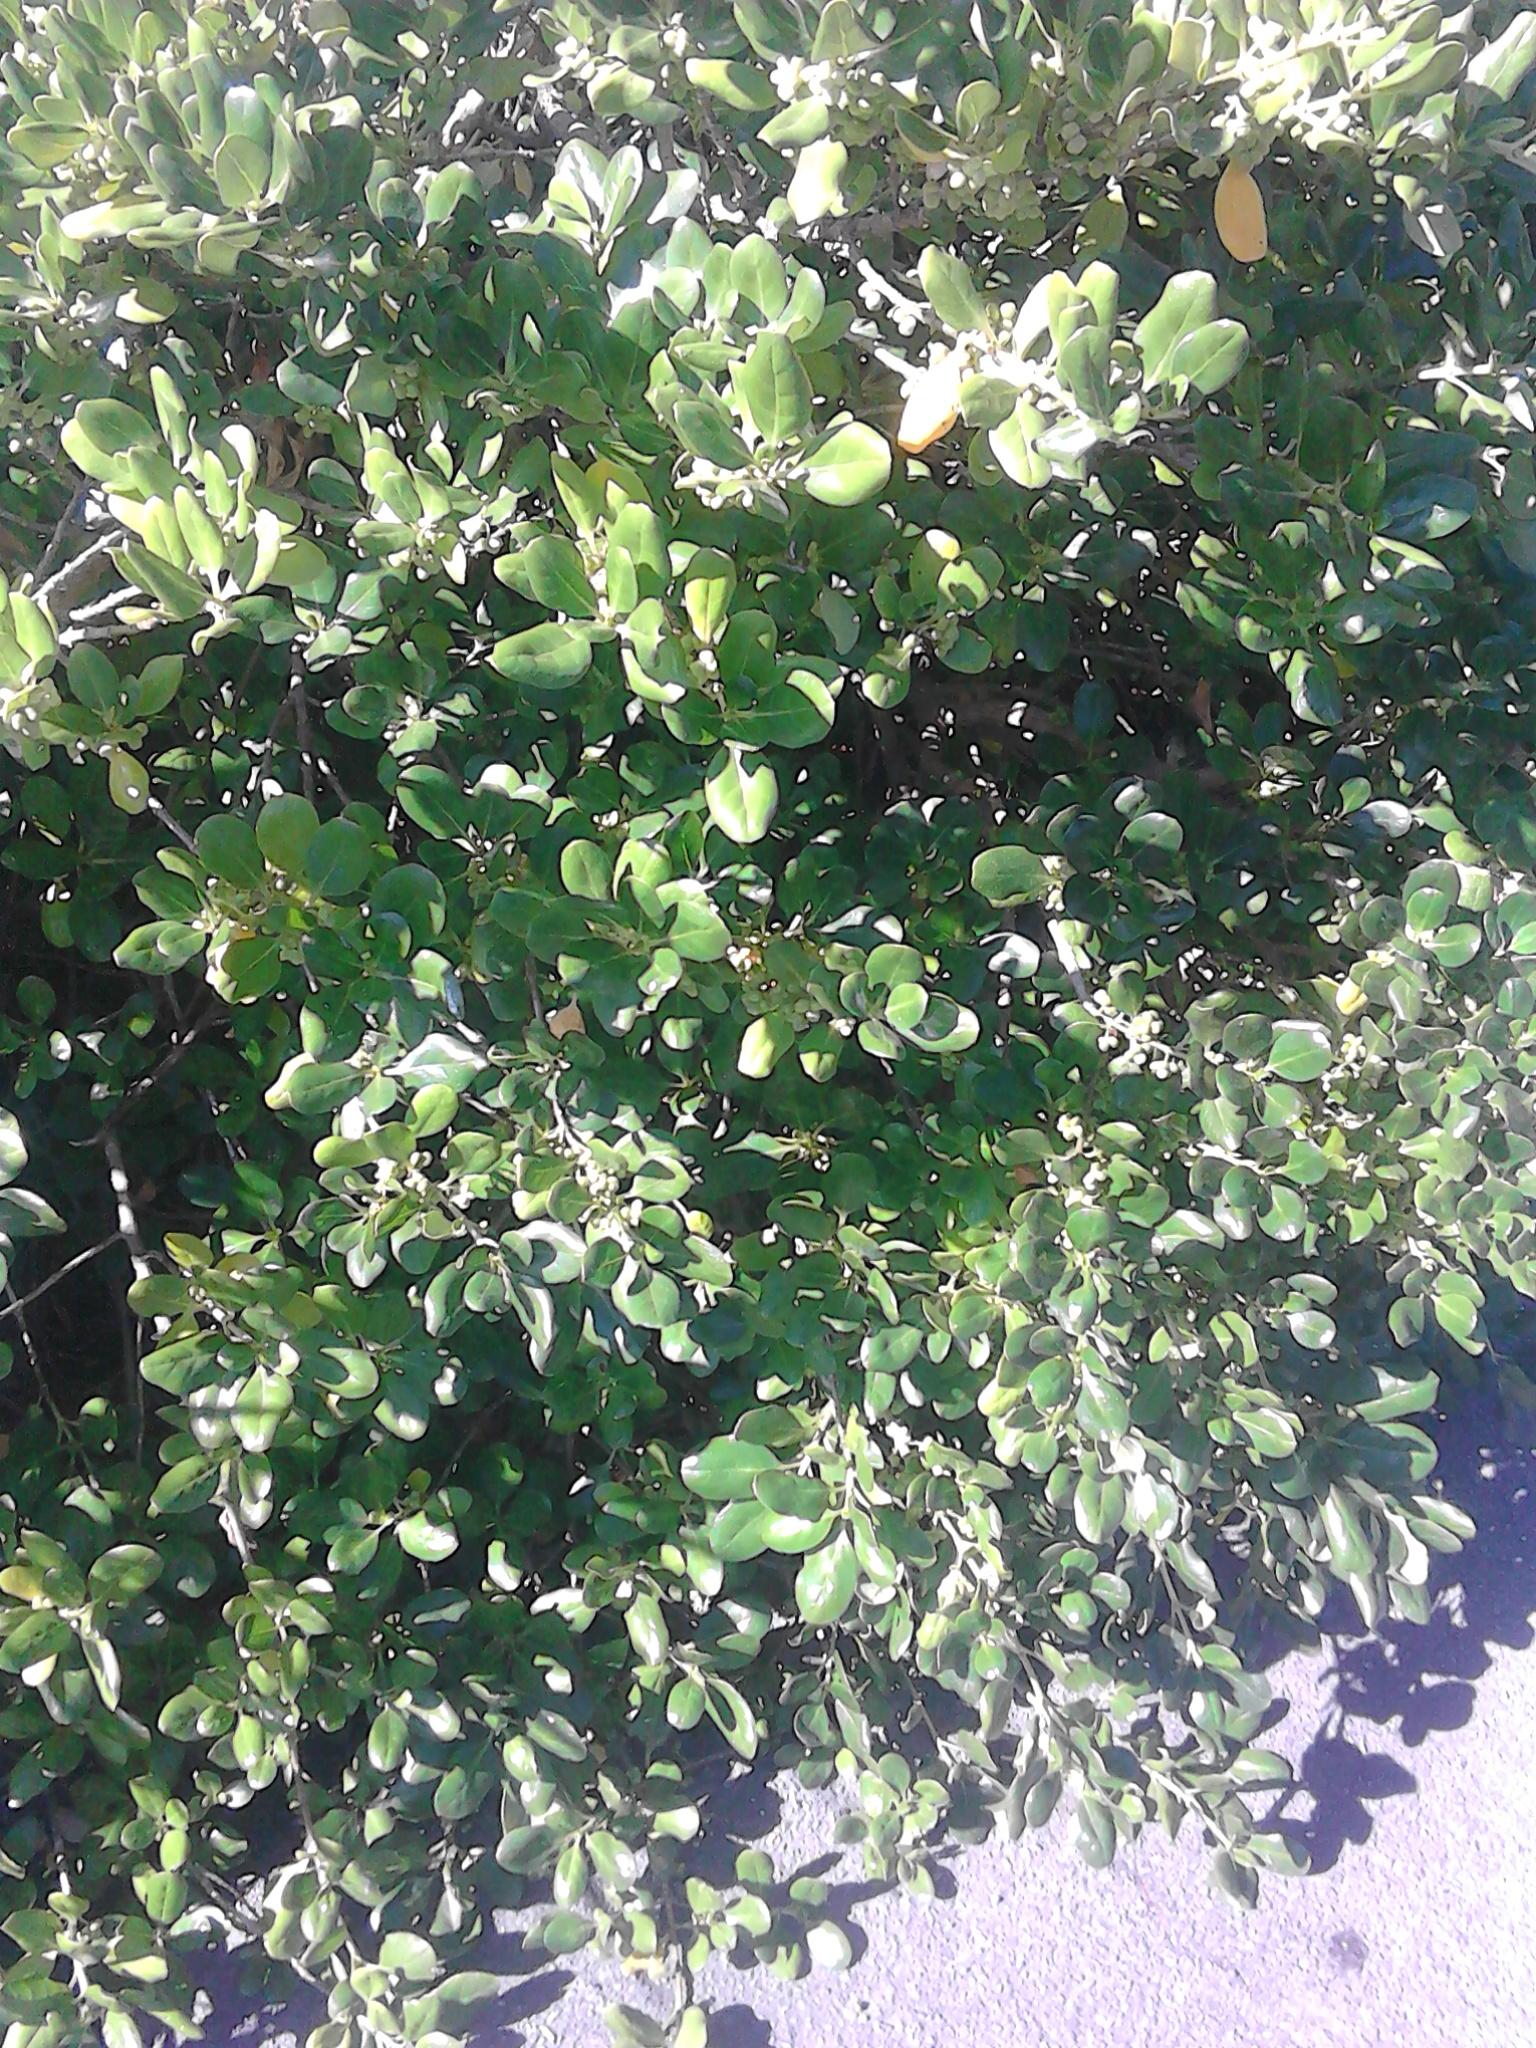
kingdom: Plantae
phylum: Tracheophyta
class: Magnoliopsida
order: Gentianales
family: Rubiaceae
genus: Coprosma
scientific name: Coprosma repens
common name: Tree bedstraw
